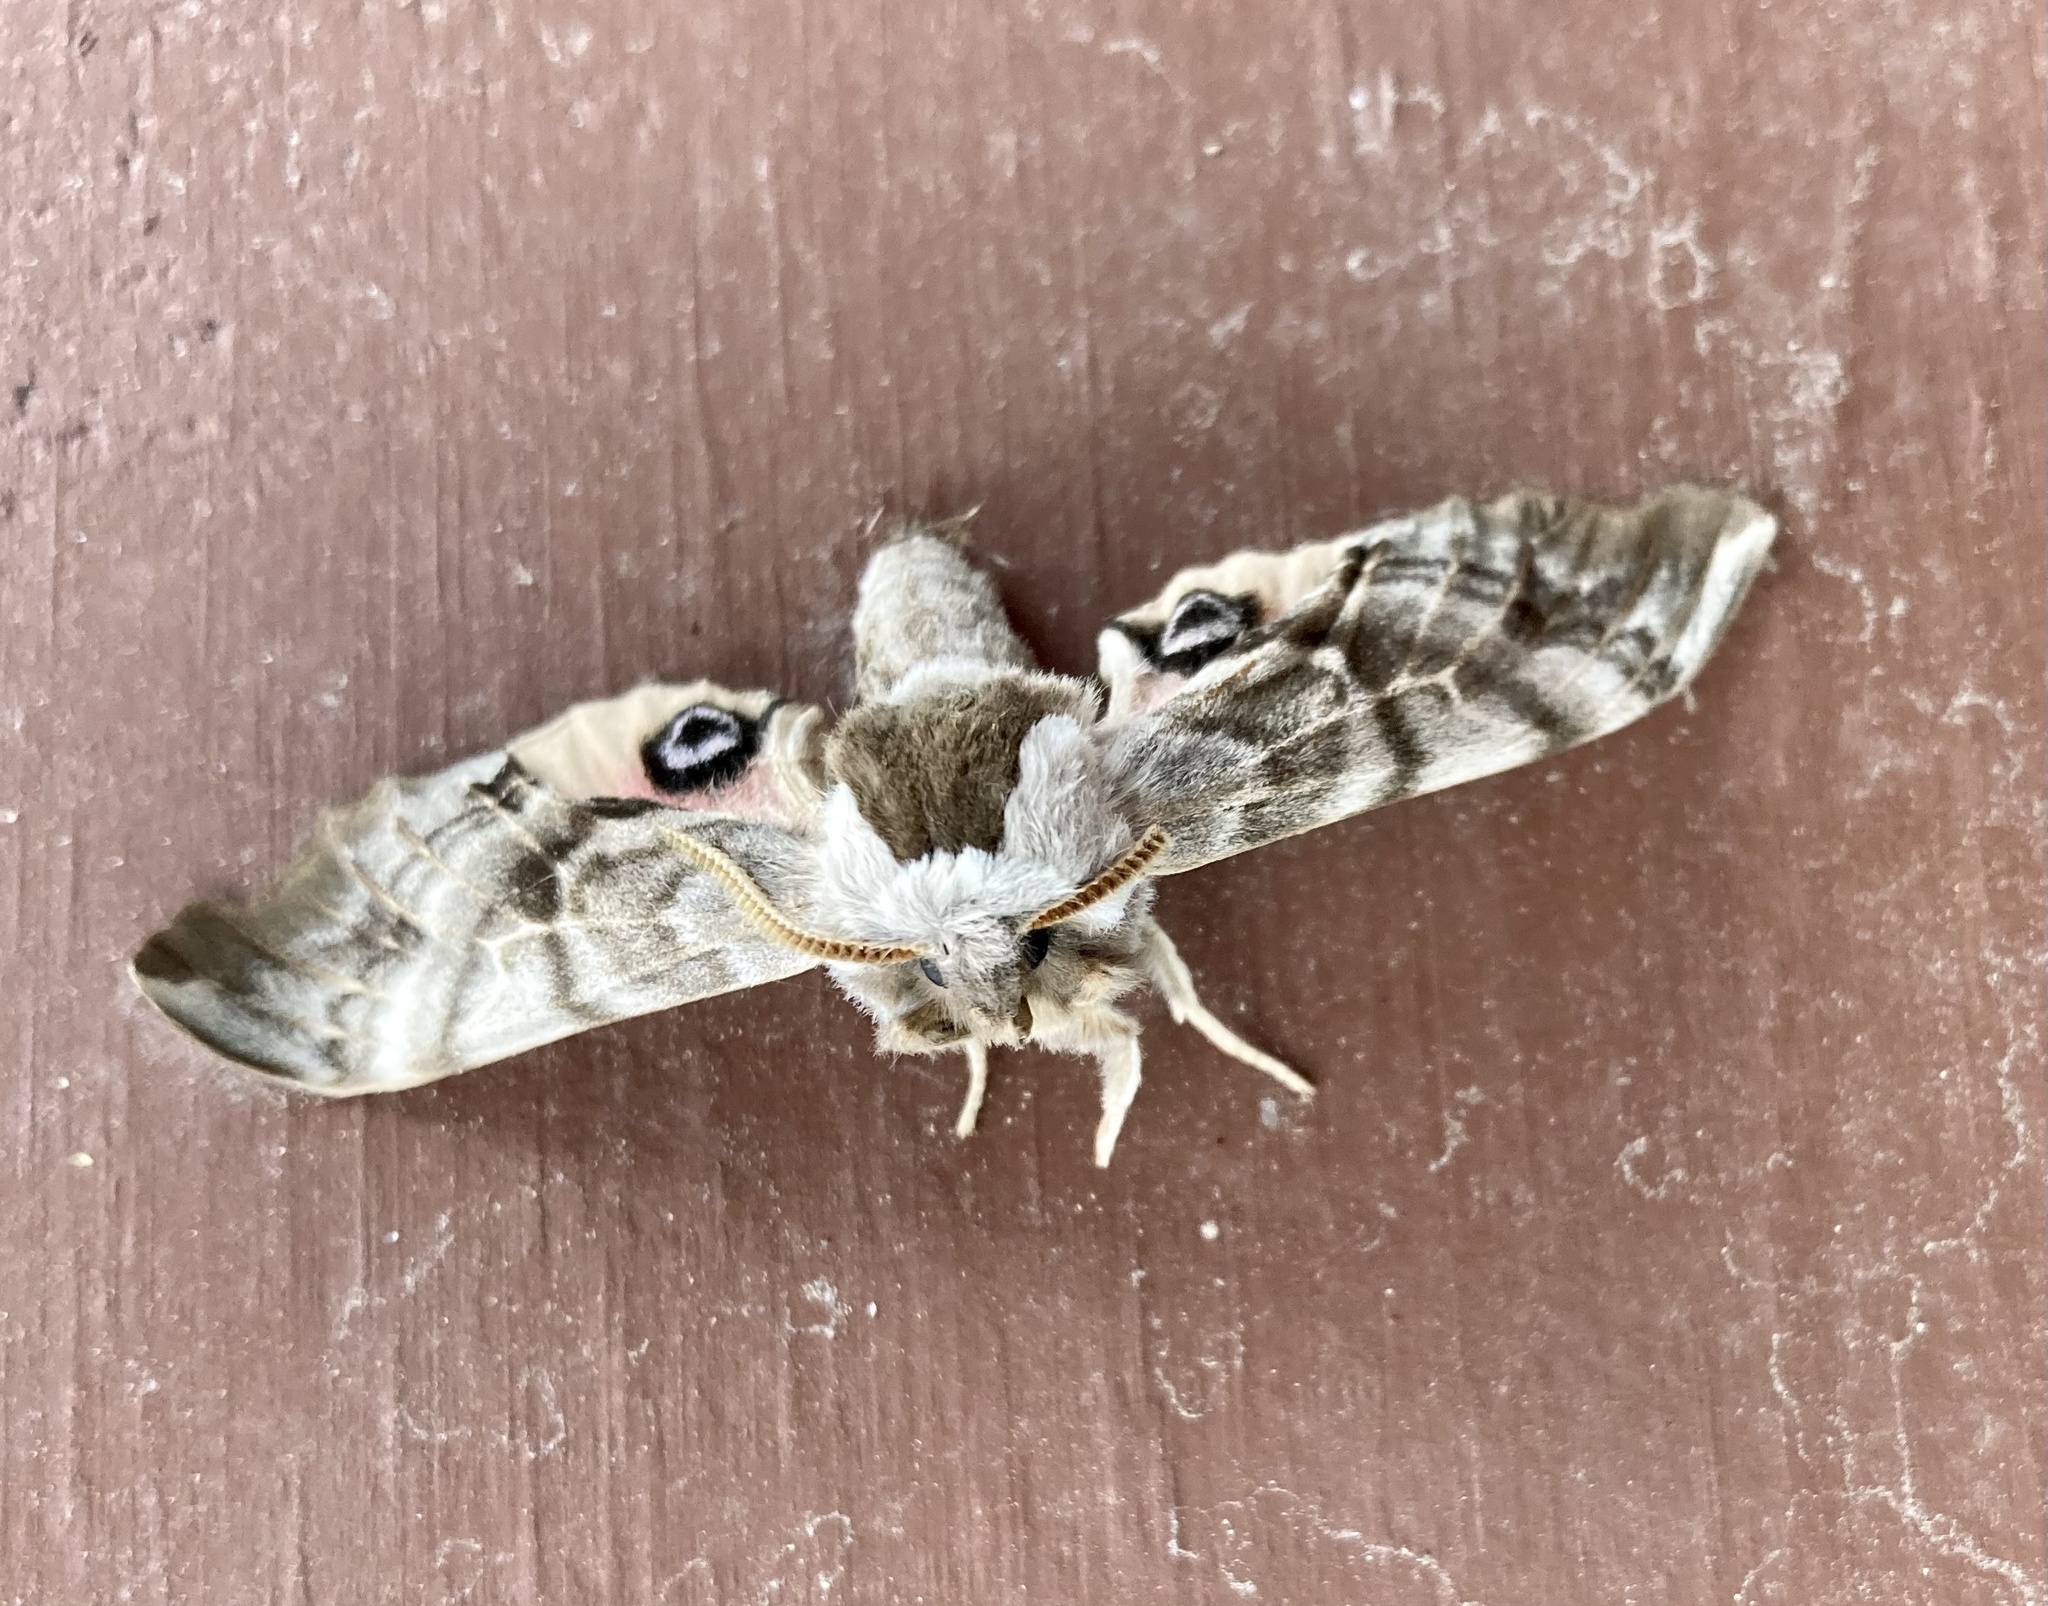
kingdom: Animalia
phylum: Arthropoda
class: Insecta
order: Lepidoptera
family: Sphingidae
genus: Smerinthus
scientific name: Smerinthus cerisyi
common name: Cerisy's sphinx moth
